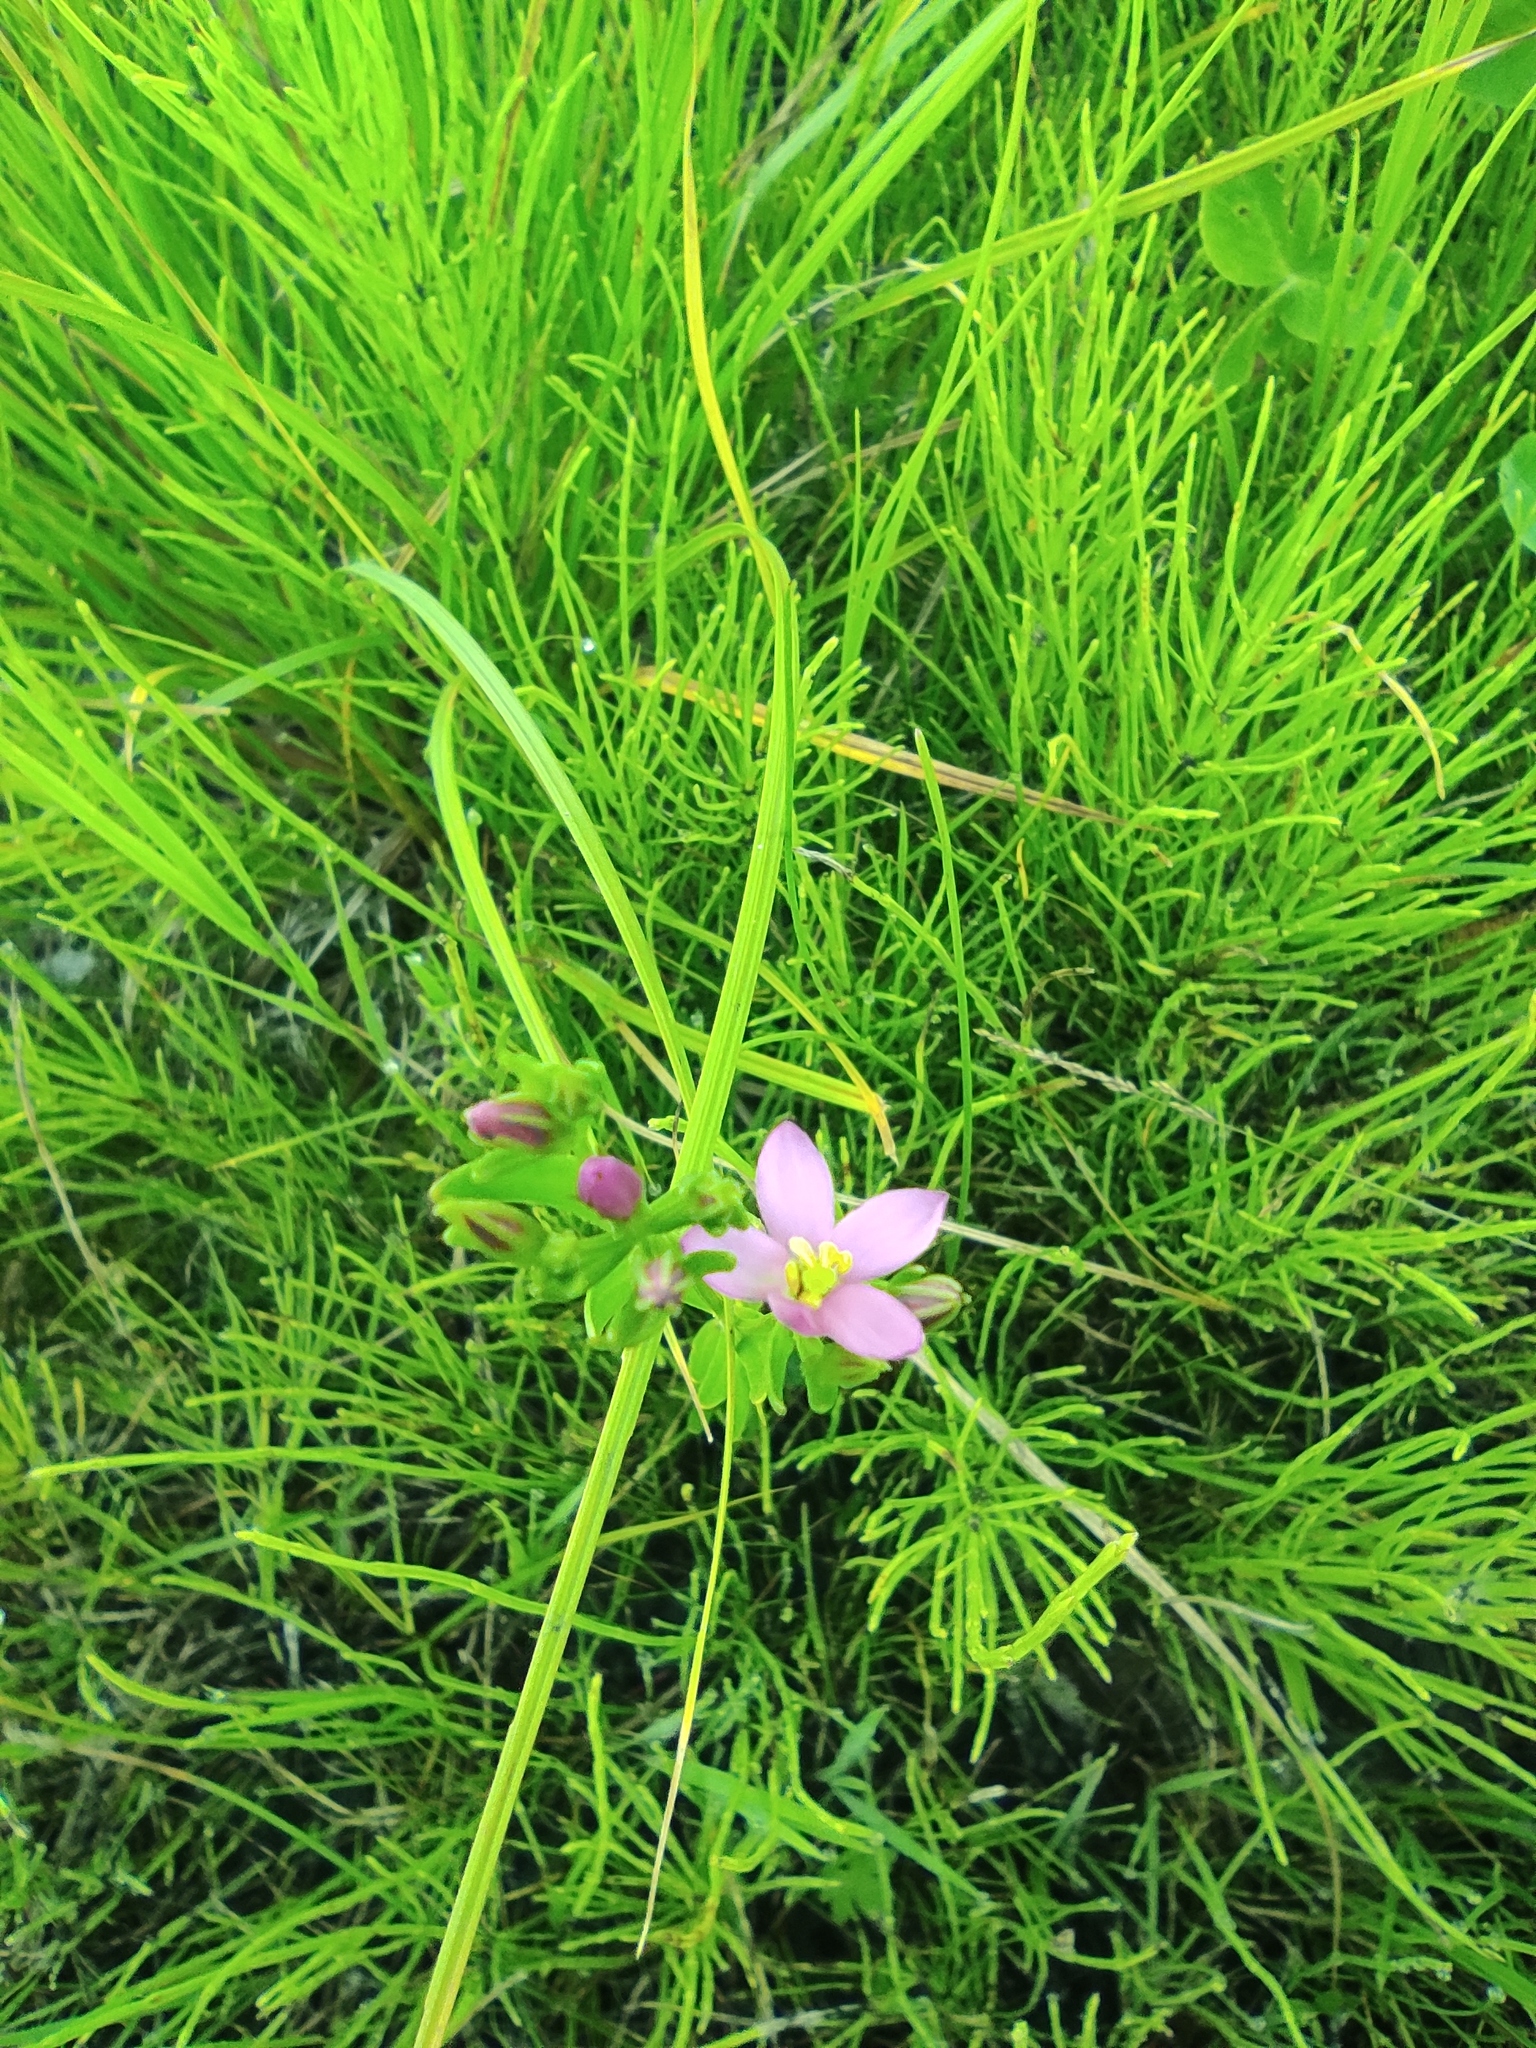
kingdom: Plantae
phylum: Tracheophyta
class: Magnoliopsida
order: Gentianales
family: Gentianaceae
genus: Centaurium
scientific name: Centaurium pulchellum
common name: Lesser centaury
